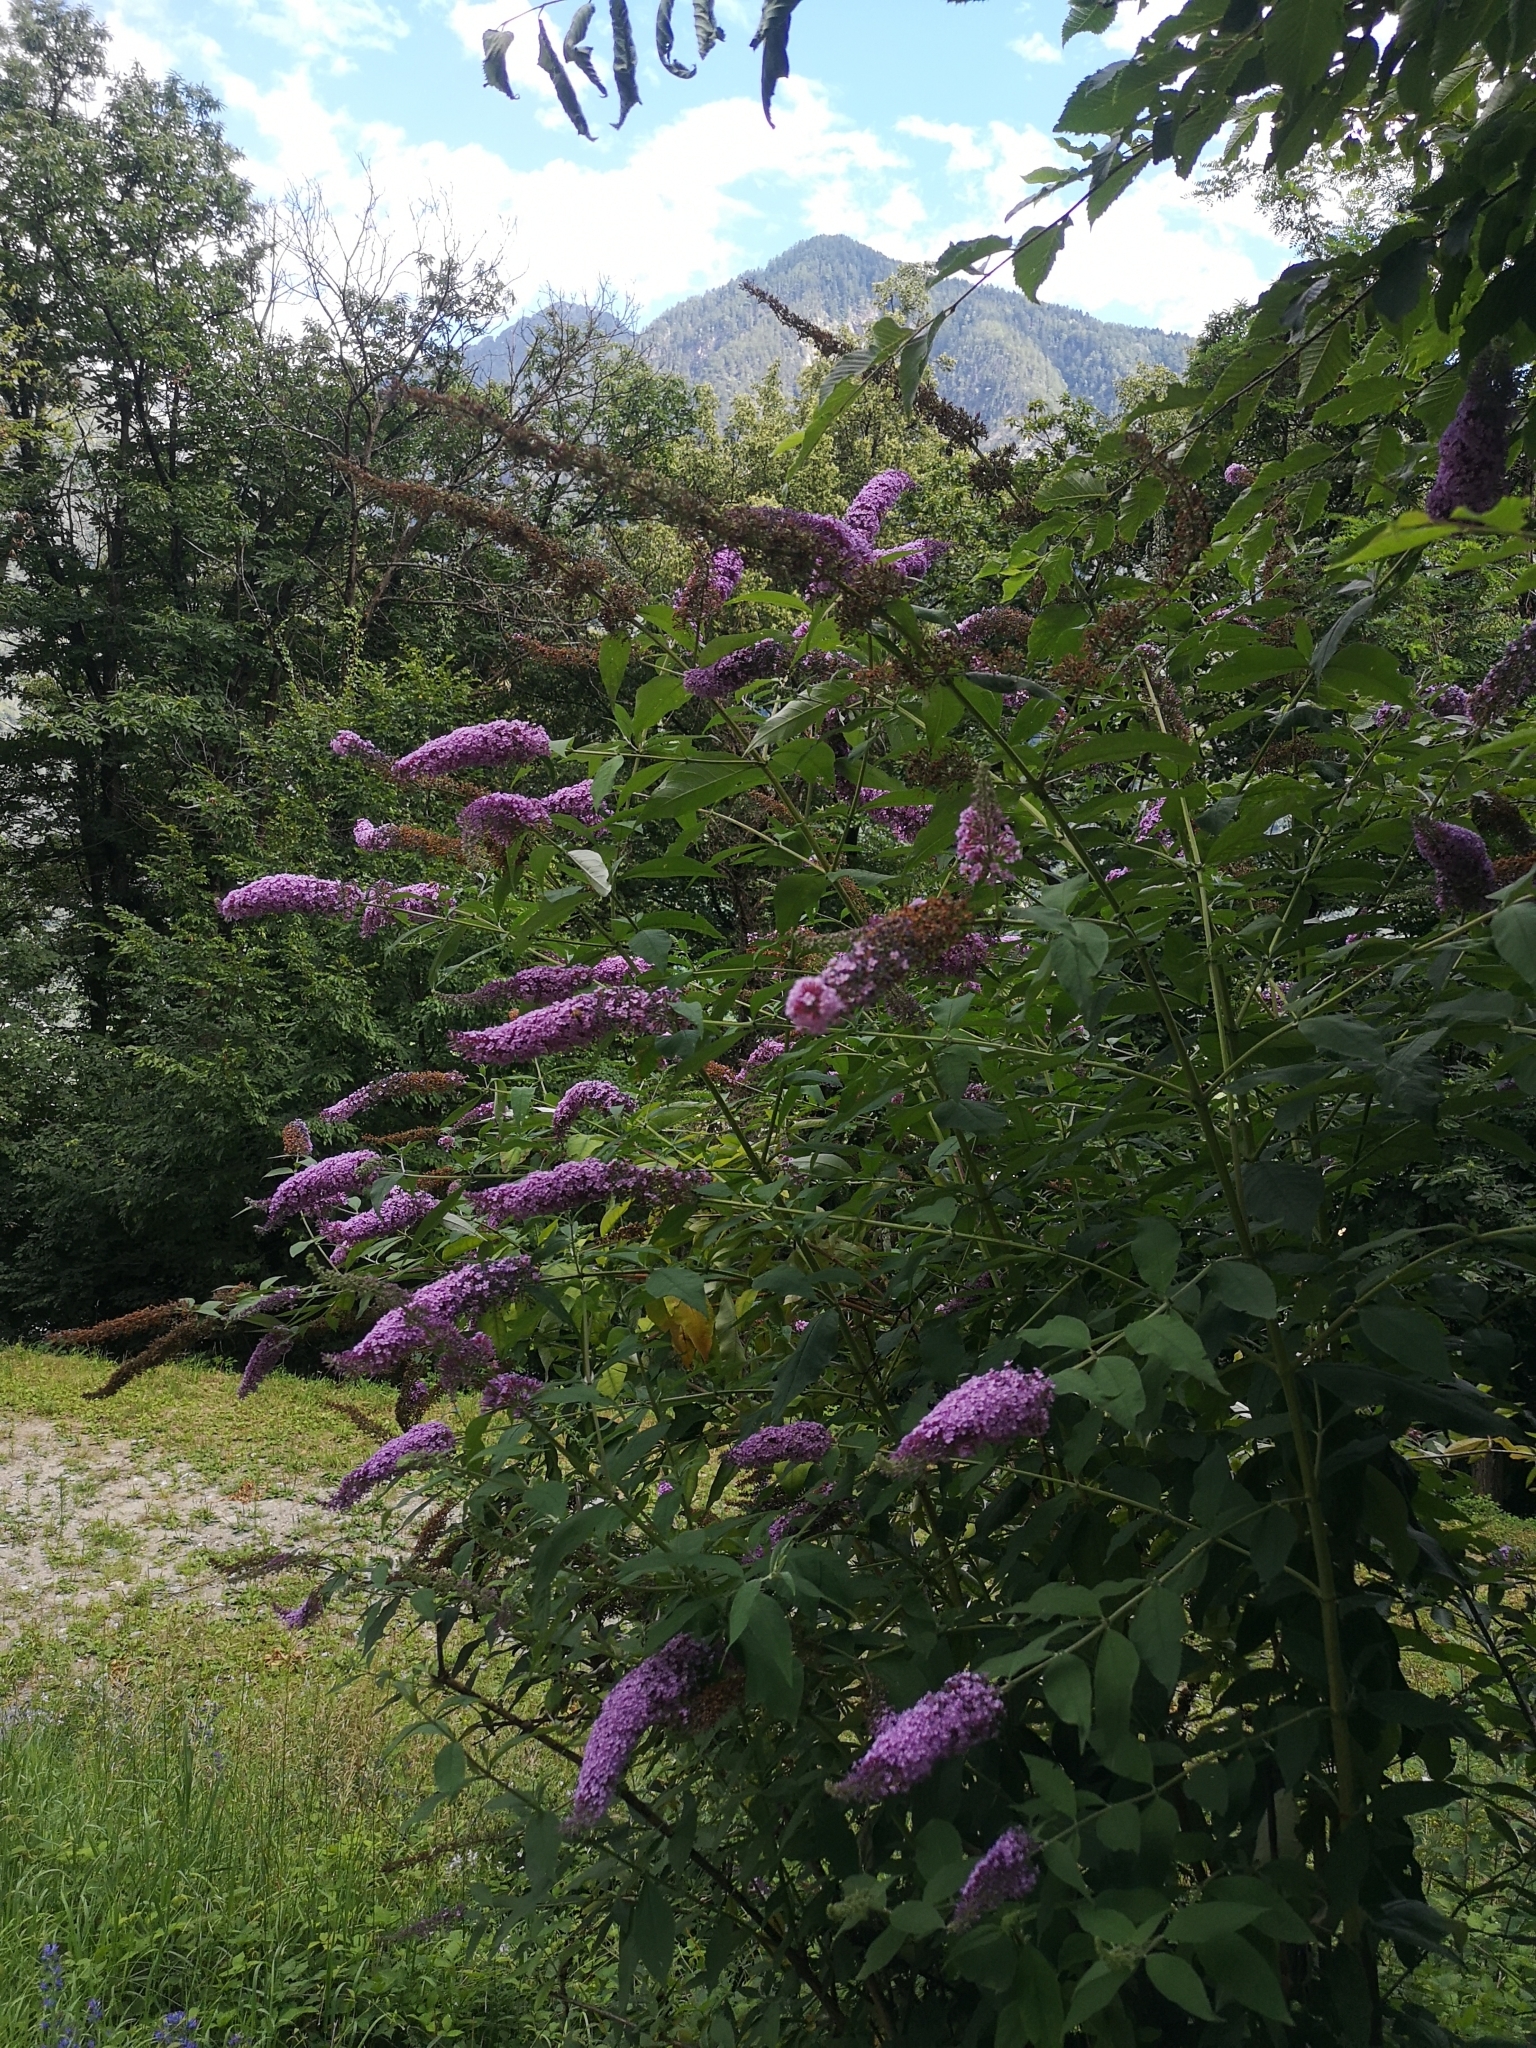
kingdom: Plantae
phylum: Tracheophyta
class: Magnoliopsida
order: Lamiales
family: Scrophulariaceae
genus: Buddleja
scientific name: Buddleja davidii
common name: Butterfly-bush
